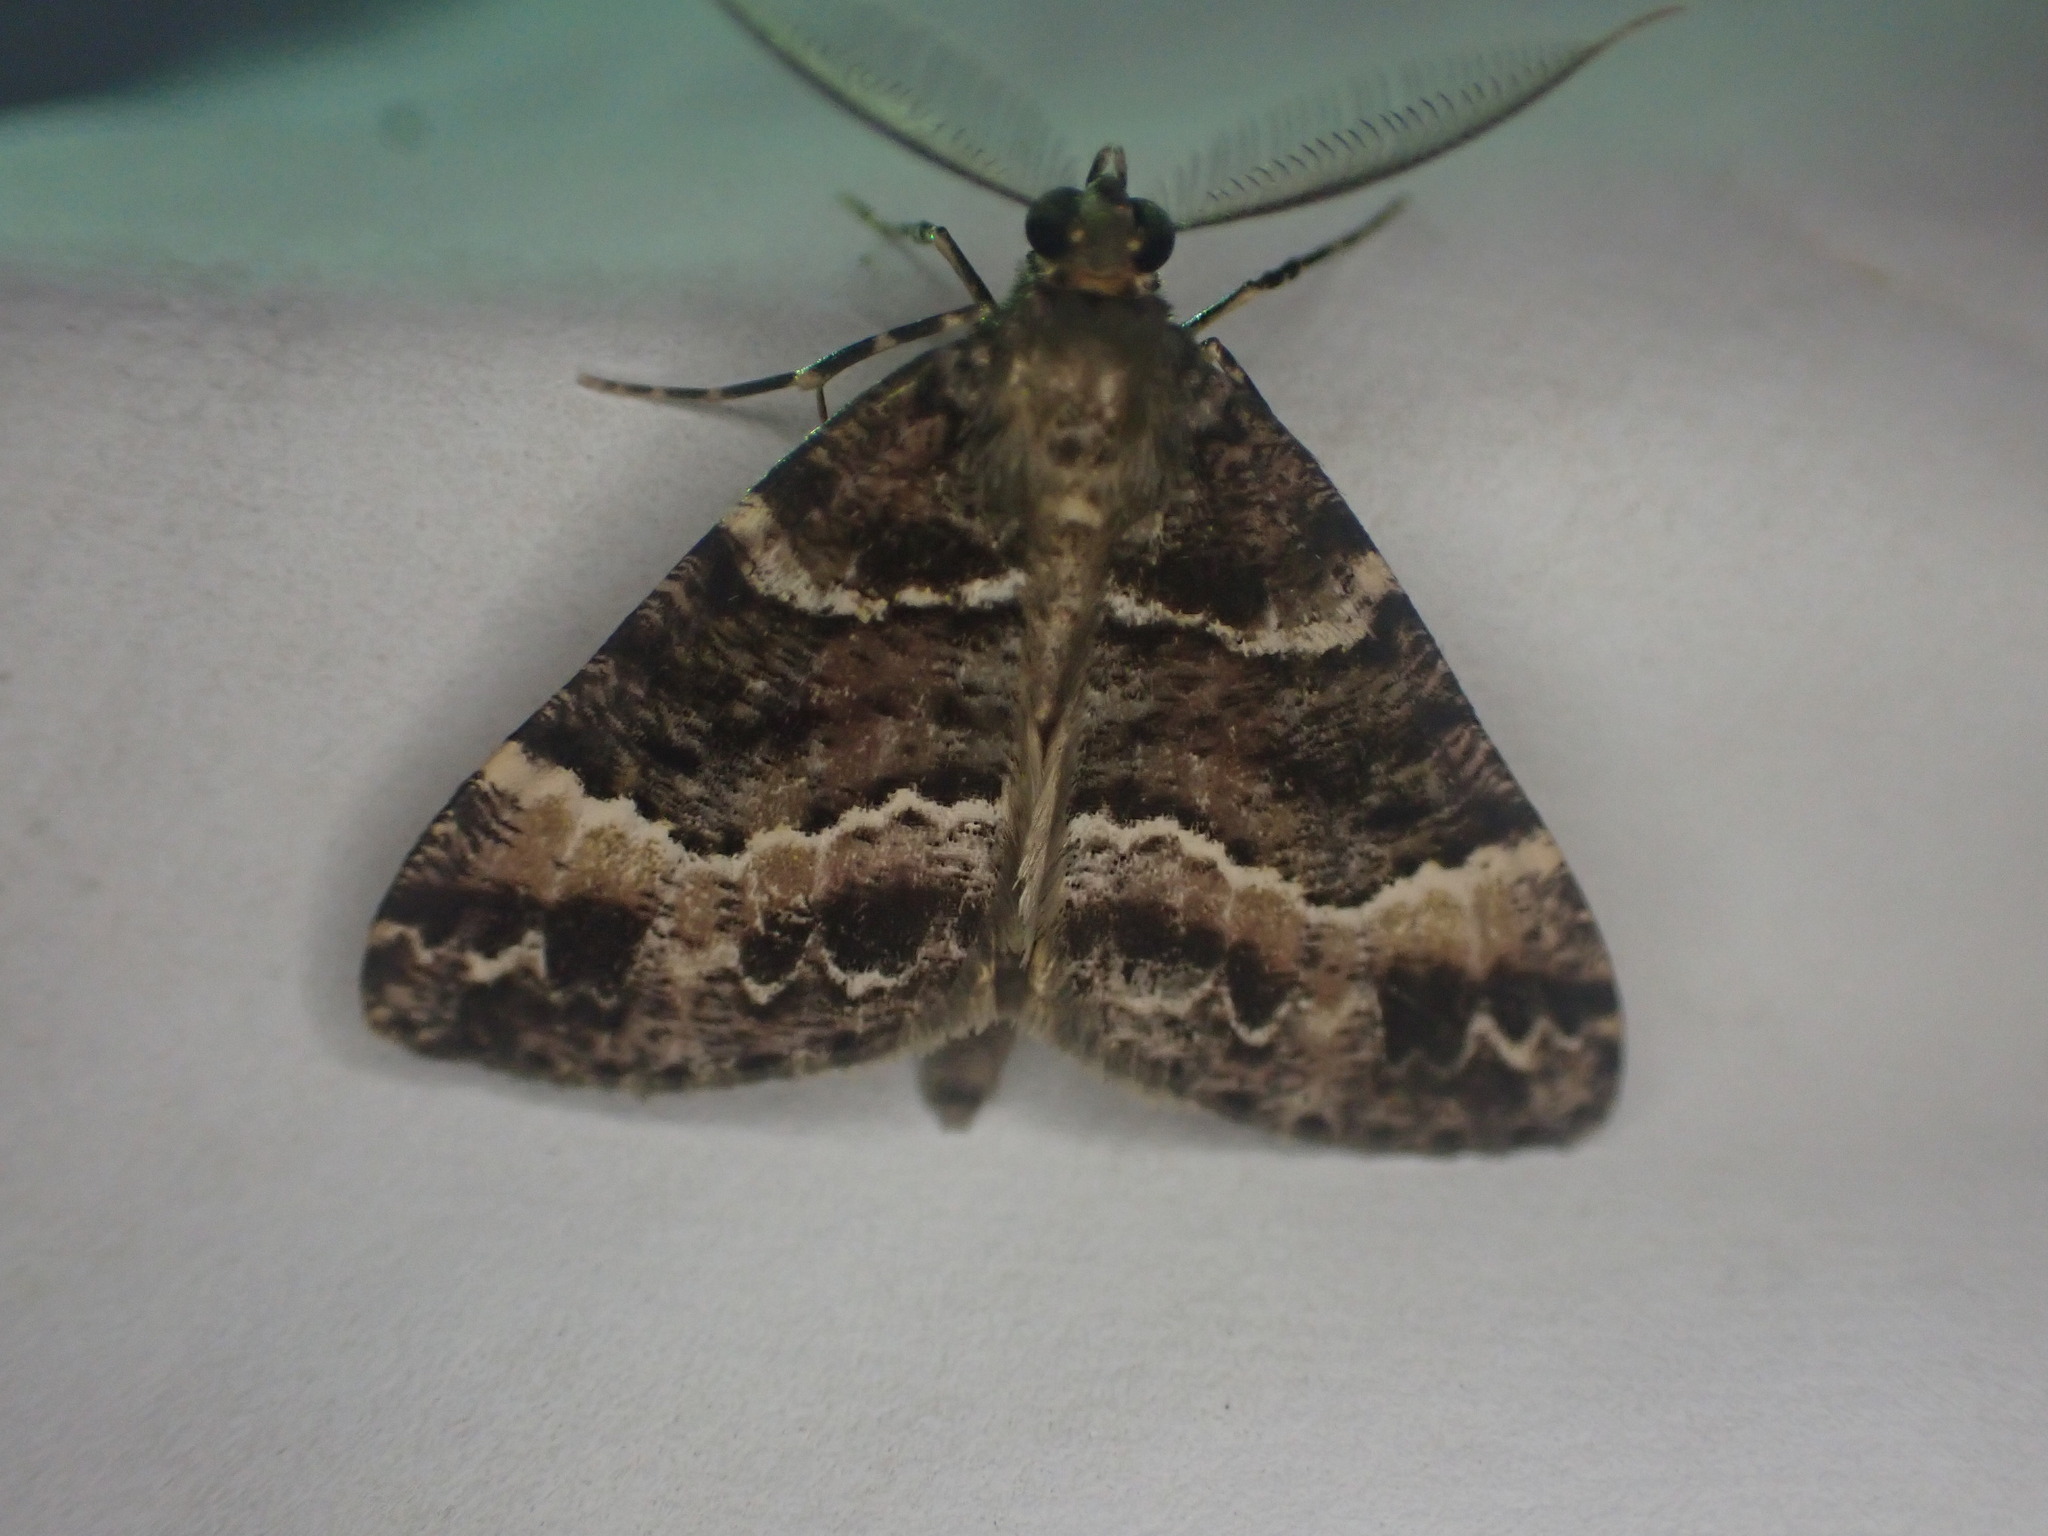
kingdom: Animalia
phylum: Arthropoda
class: Insecta
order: Lepidoptera
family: Geometridae
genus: Pseudocoremia
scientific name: Pseudocoremia productata
